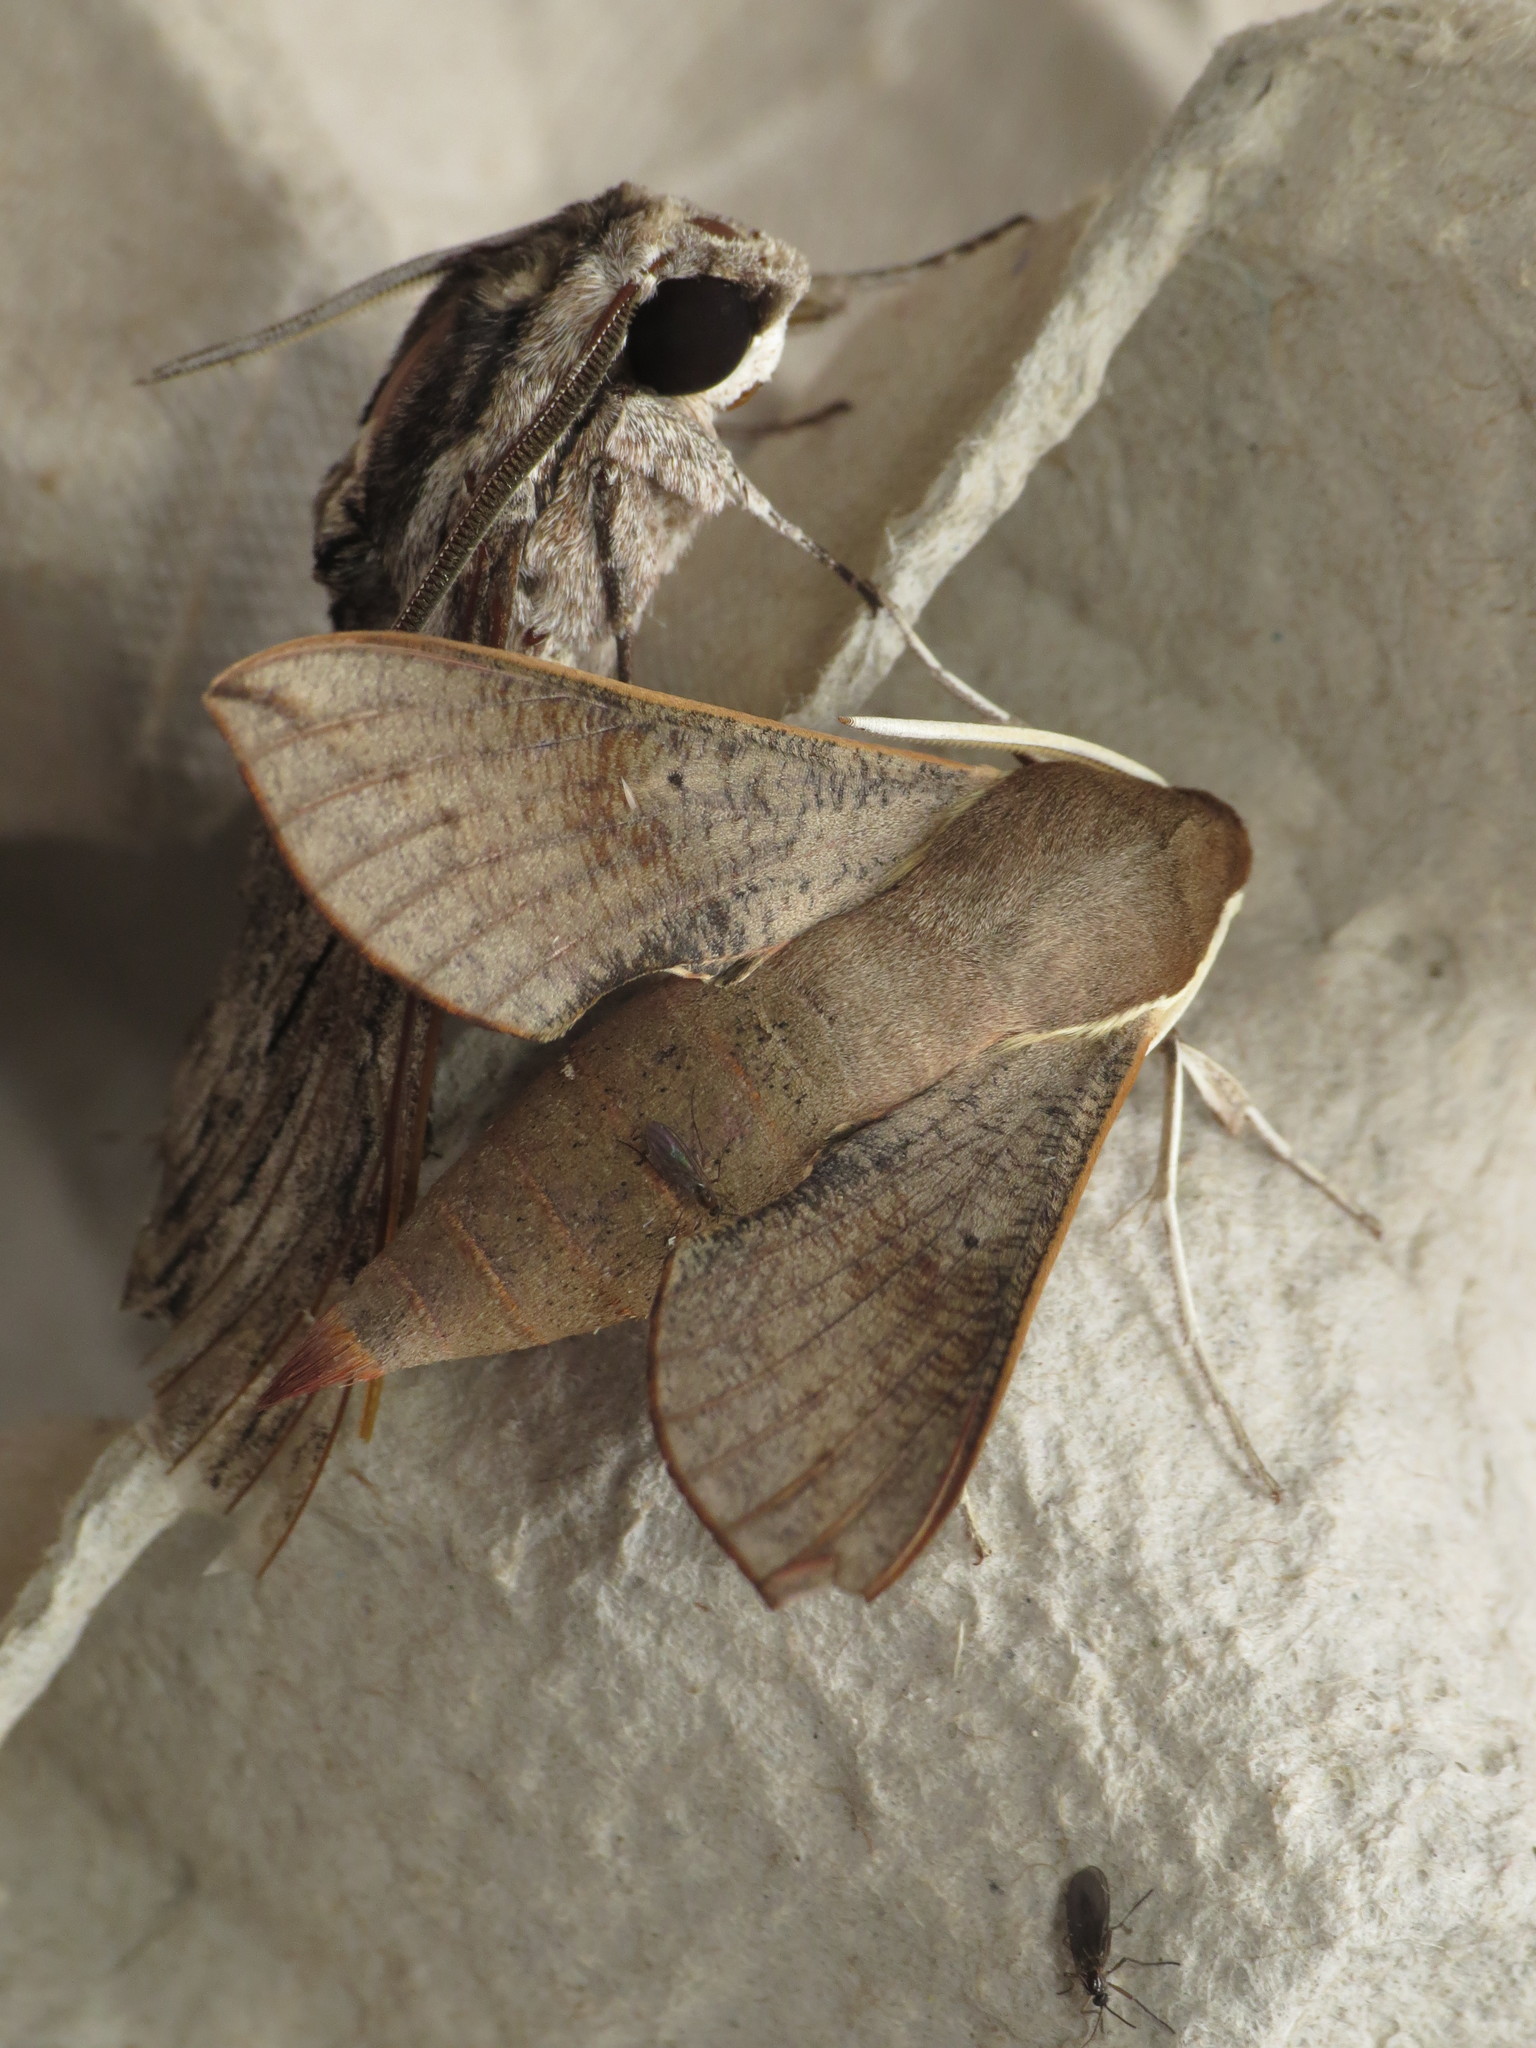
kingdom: Animalia
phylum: Arthropoda
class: Insecta
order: Lepidoptera
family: Sphingidae
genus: Hippotion
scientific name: Hippotion scrofa
